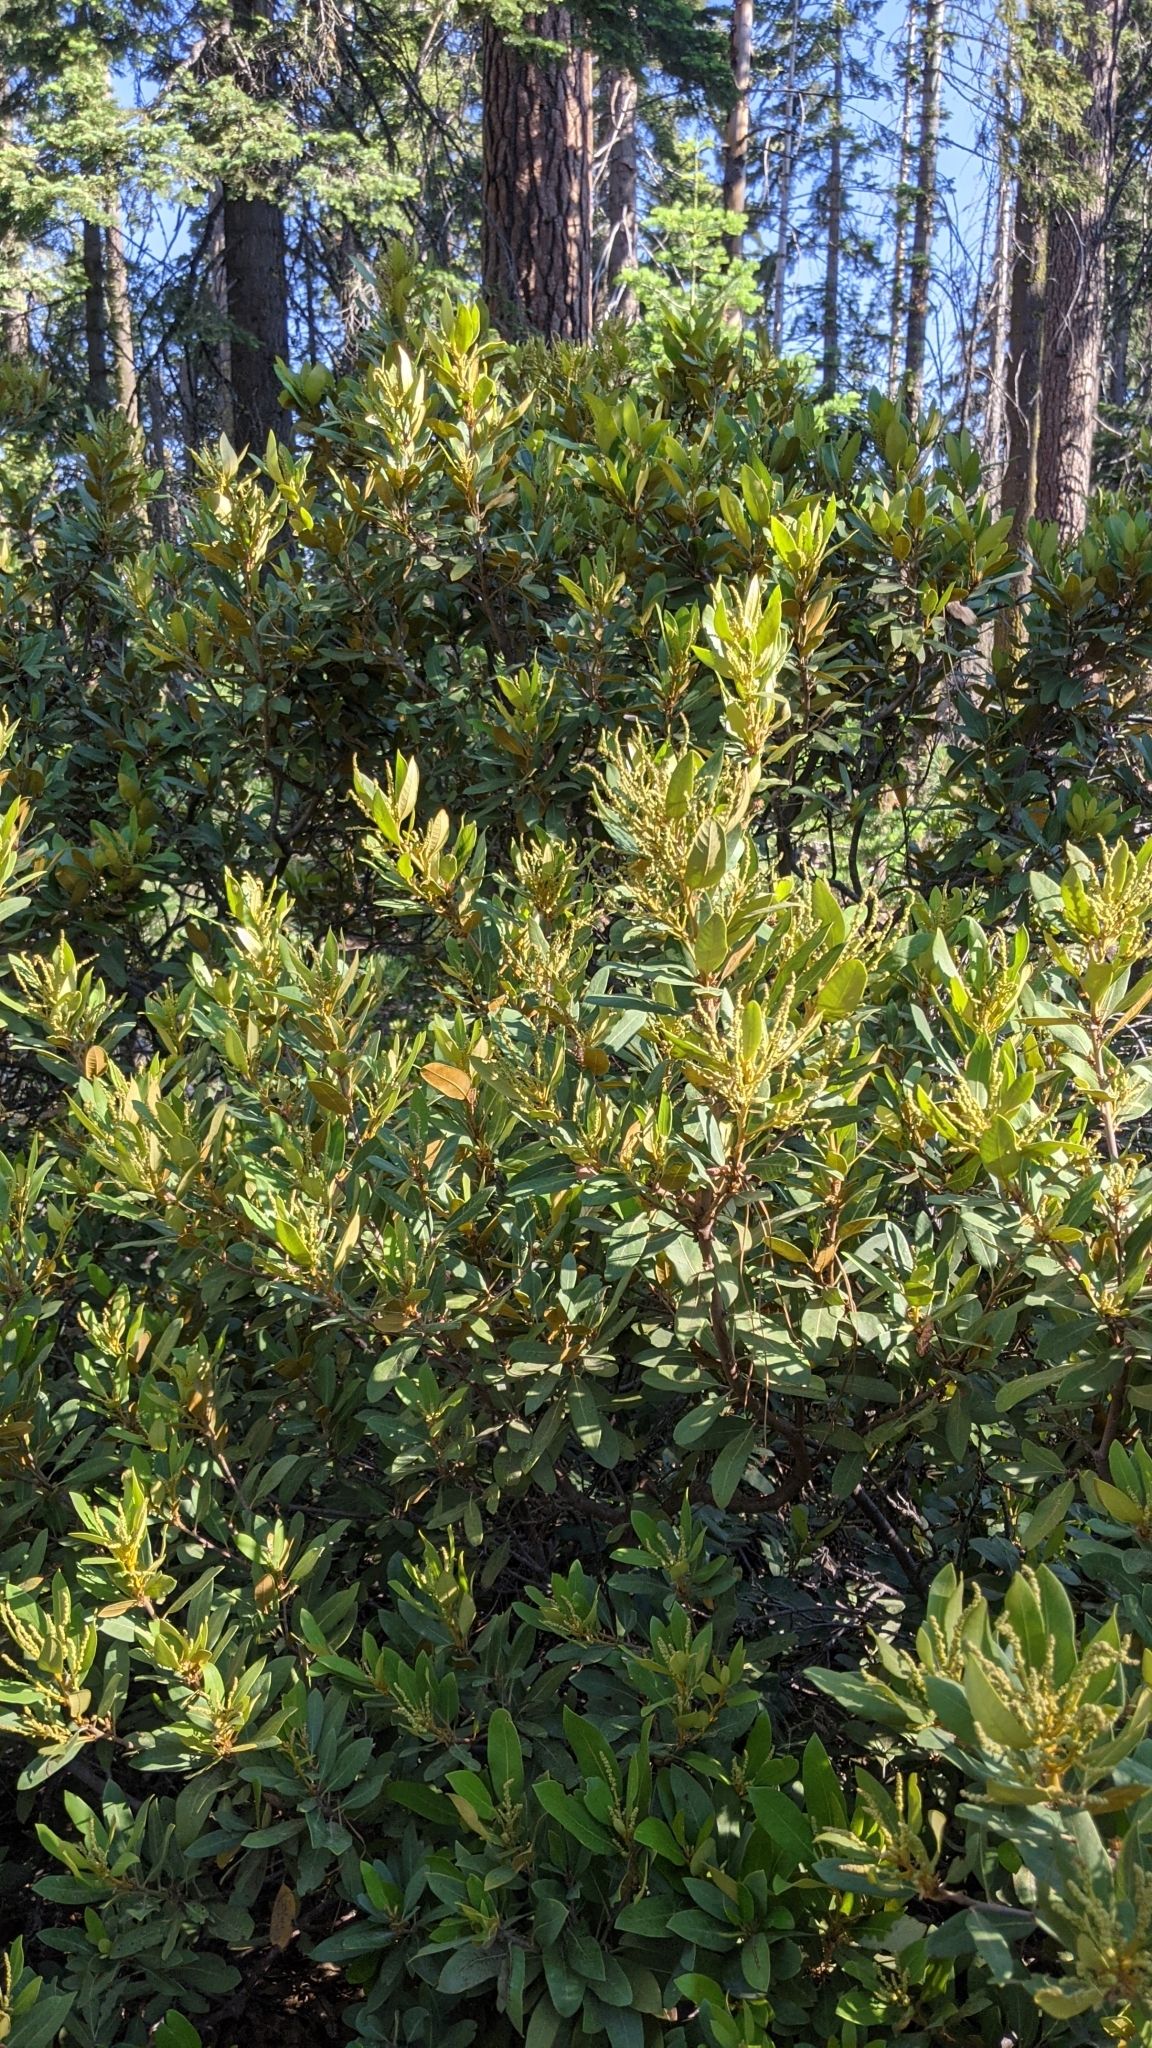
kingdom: Plantae
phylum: Tracheophyta
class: Magnoliopsida
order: Fagales
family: Fagaceae
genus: Chrysolepis
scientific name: Chrysolepis sempervirens
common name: Bush chinquapin
